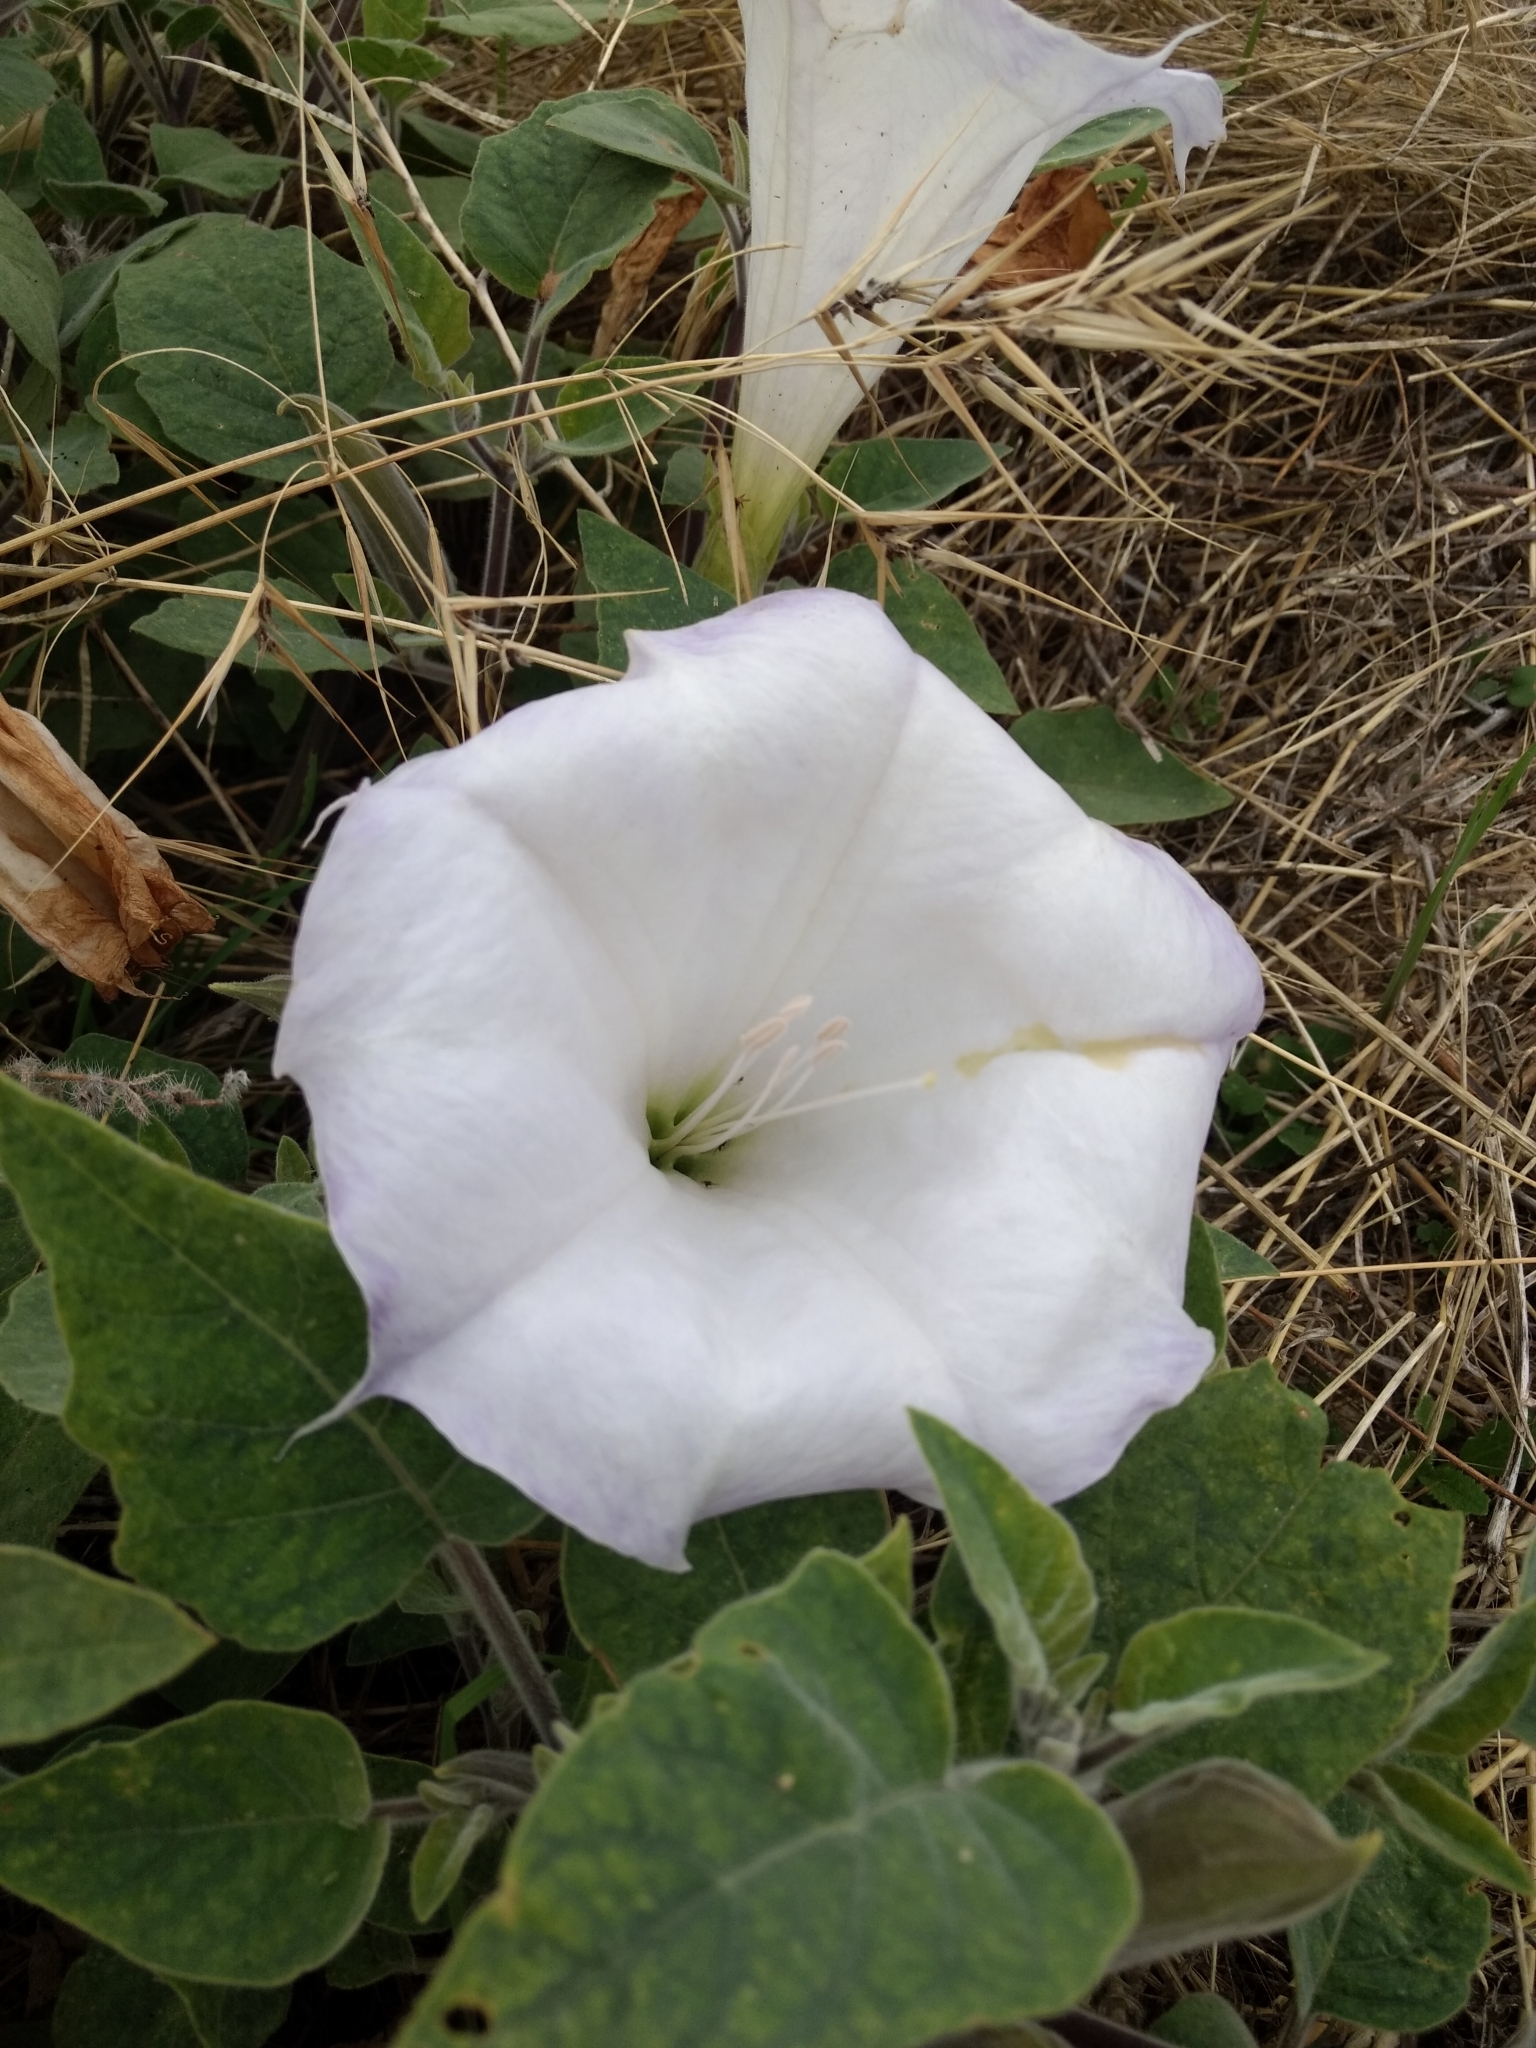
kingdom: Plantae
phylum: Tracheophyta
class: Magnoliopsida
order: Solanales
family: Solanaceae
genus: Datura
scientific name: Datura wrightii
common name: Sacred thorn-apple
